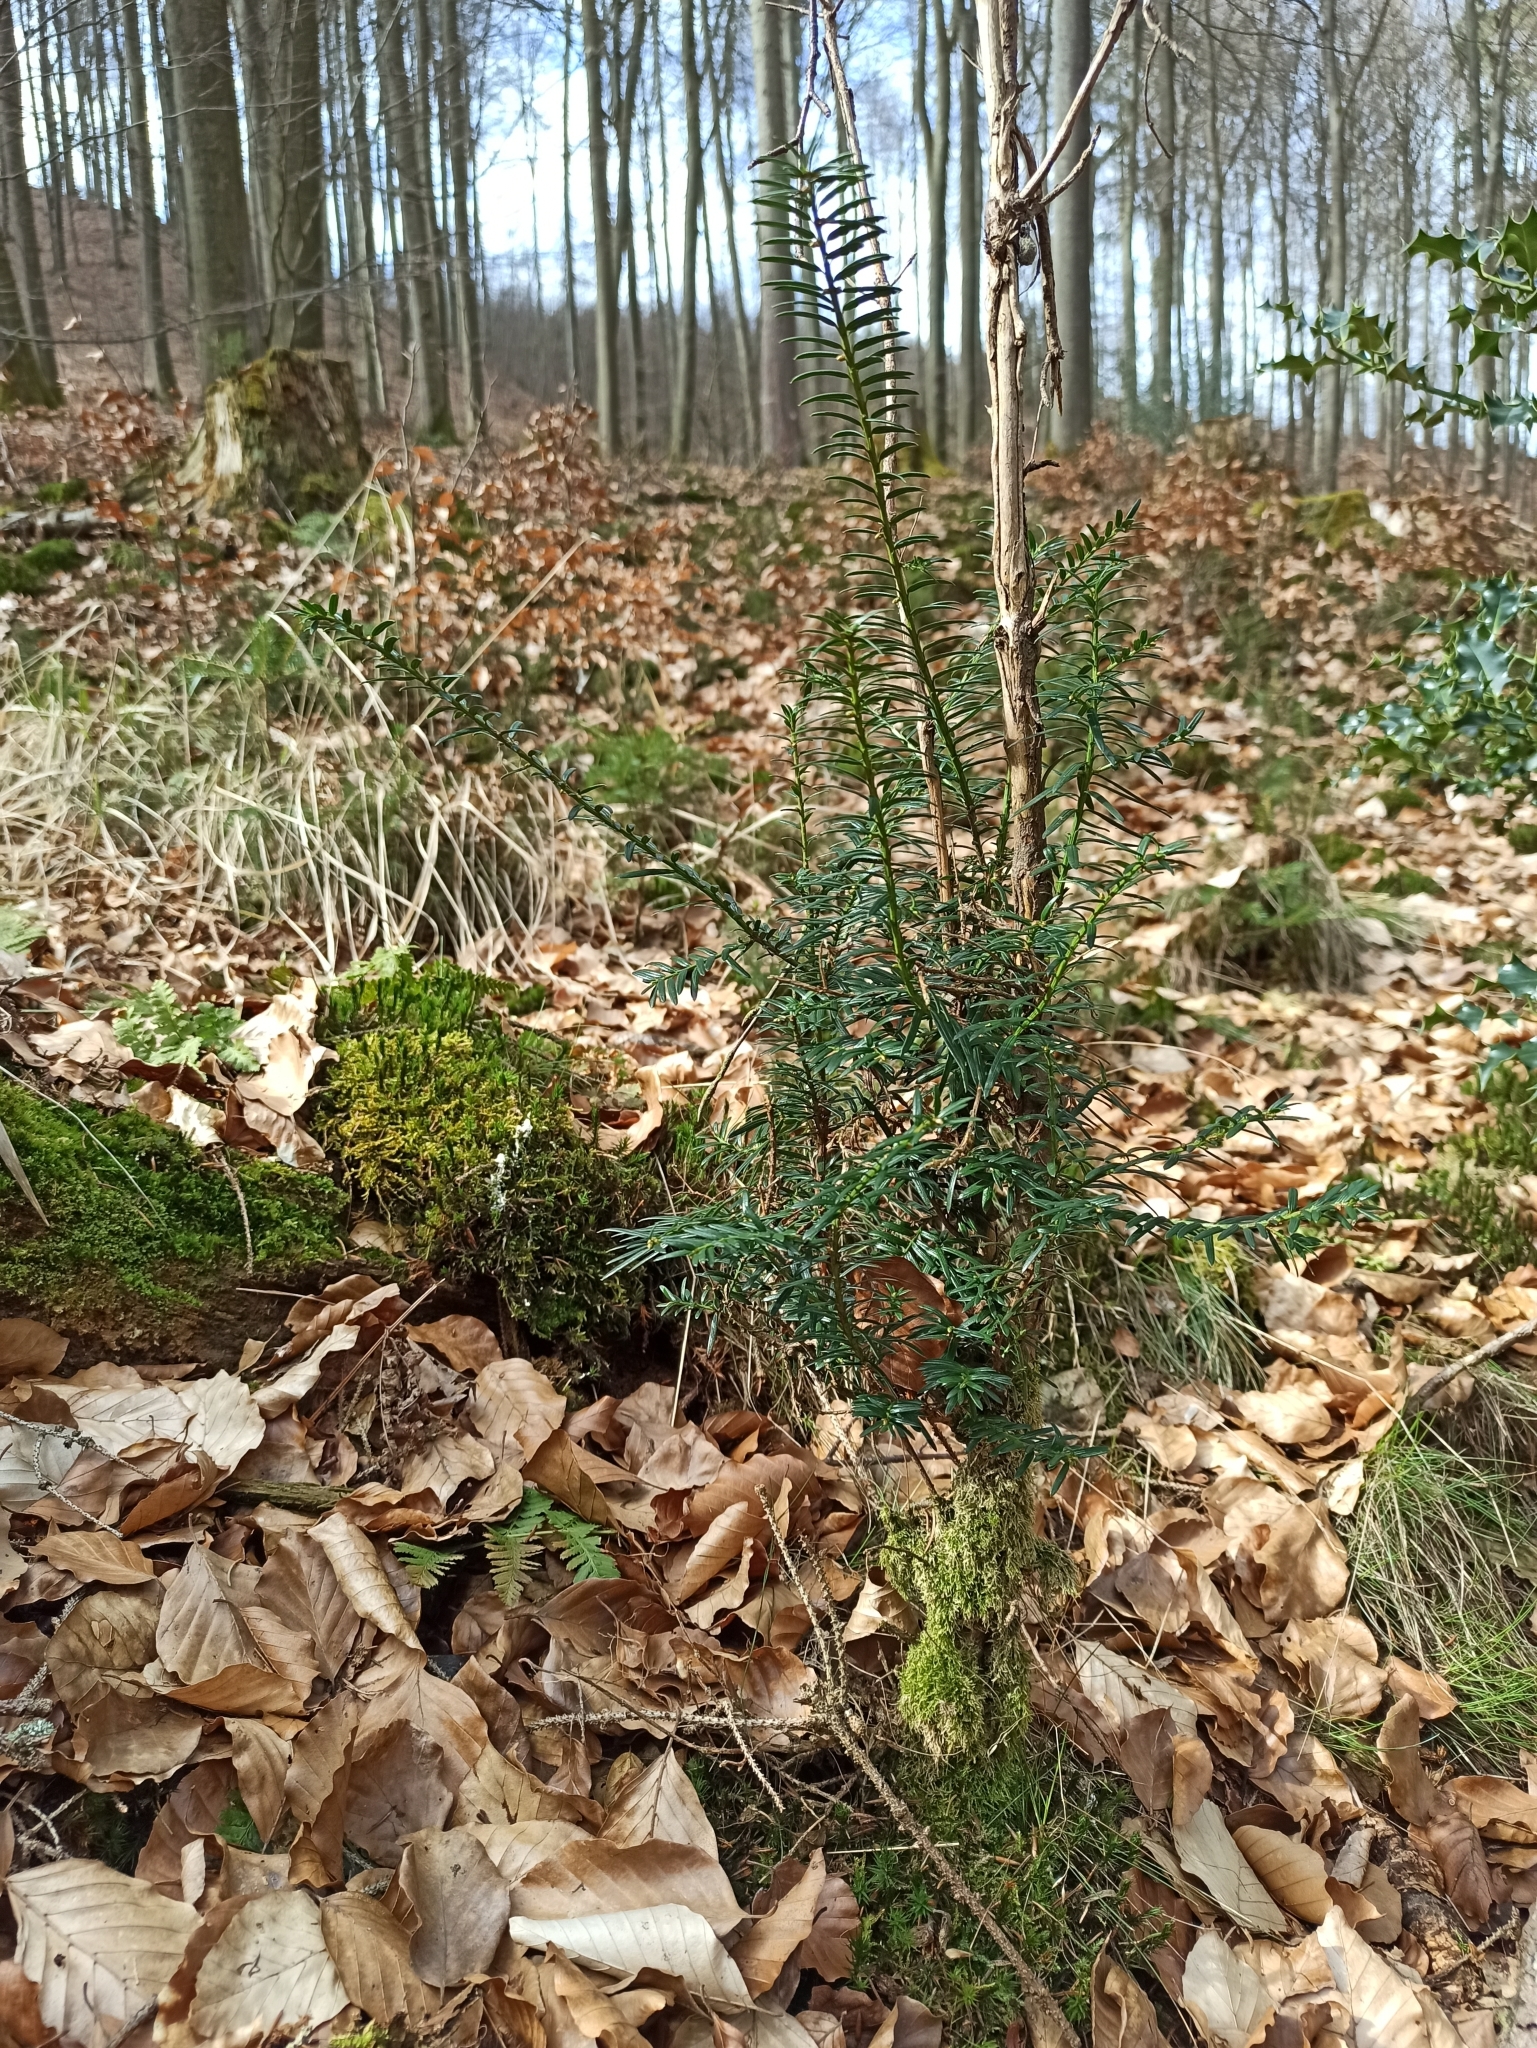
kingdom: Plantae
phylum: Tracheophyta
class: Pinopsida
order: Pinales
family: Taxaceae
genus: Taxus
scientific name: Taxus baccata
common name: Yew
